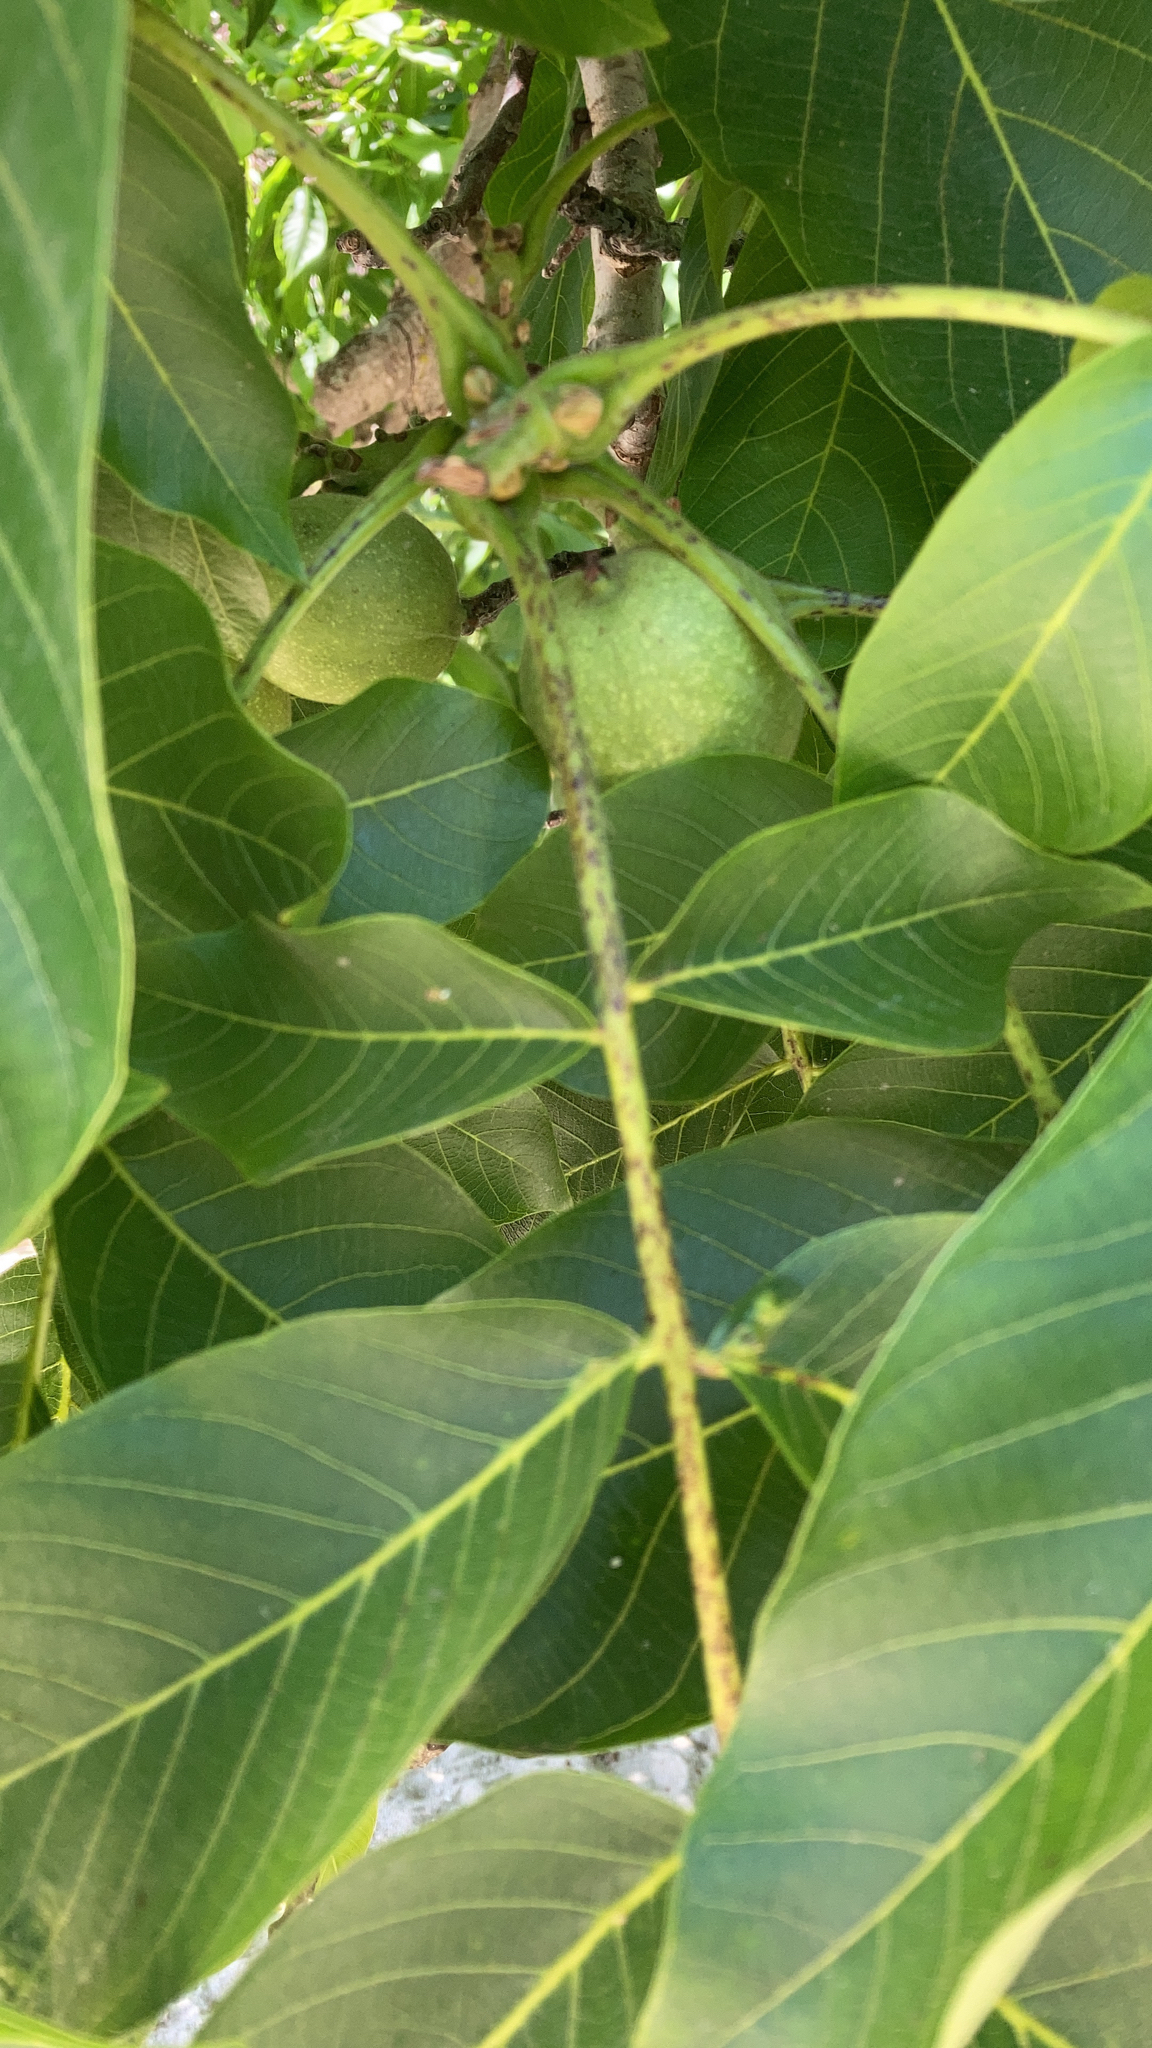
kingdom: Plantae
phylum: Tracheophyta
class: Magnoliopsida
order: Fagales
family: Juglandaceae
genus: Juglans
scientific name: Juglans regia
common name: Walnut
